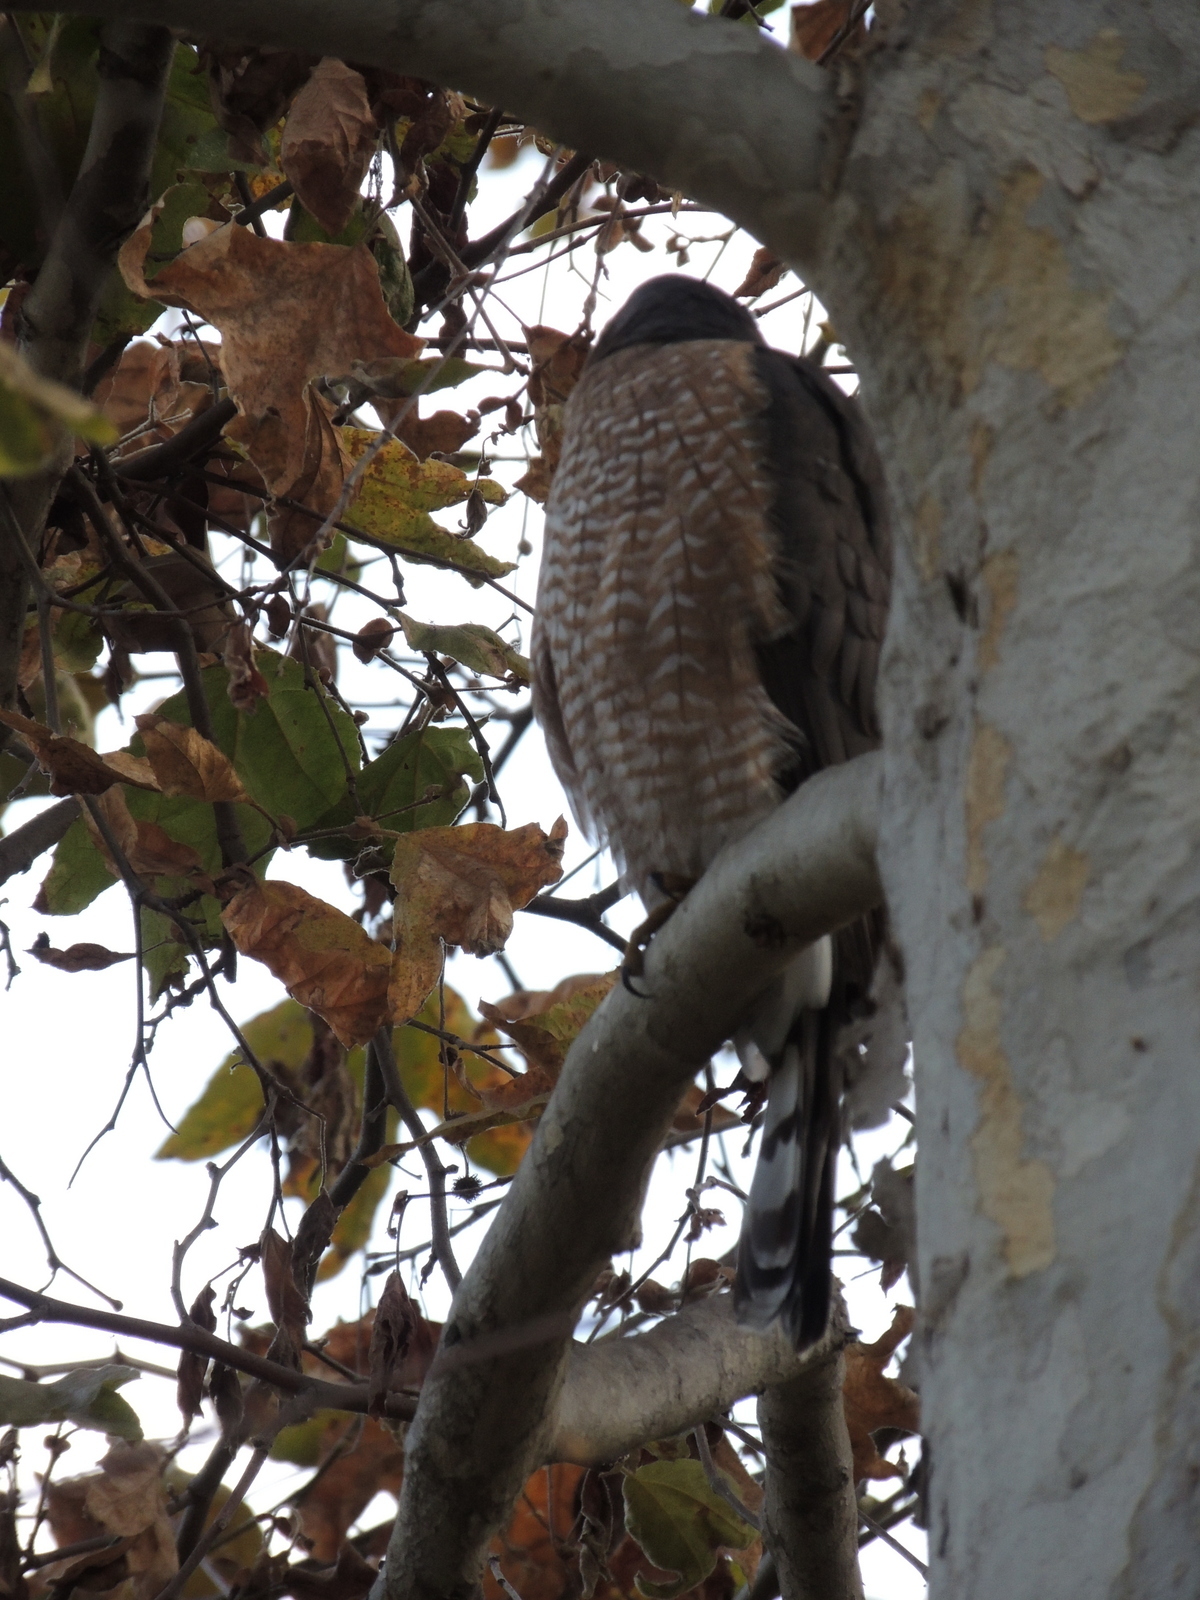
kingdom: Animalia
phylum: Chordata
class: Aves
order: Accipitriformes
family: Accipitridae
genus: Accipiter
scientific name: Accipiter cooperii
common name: Cooper's hawk
